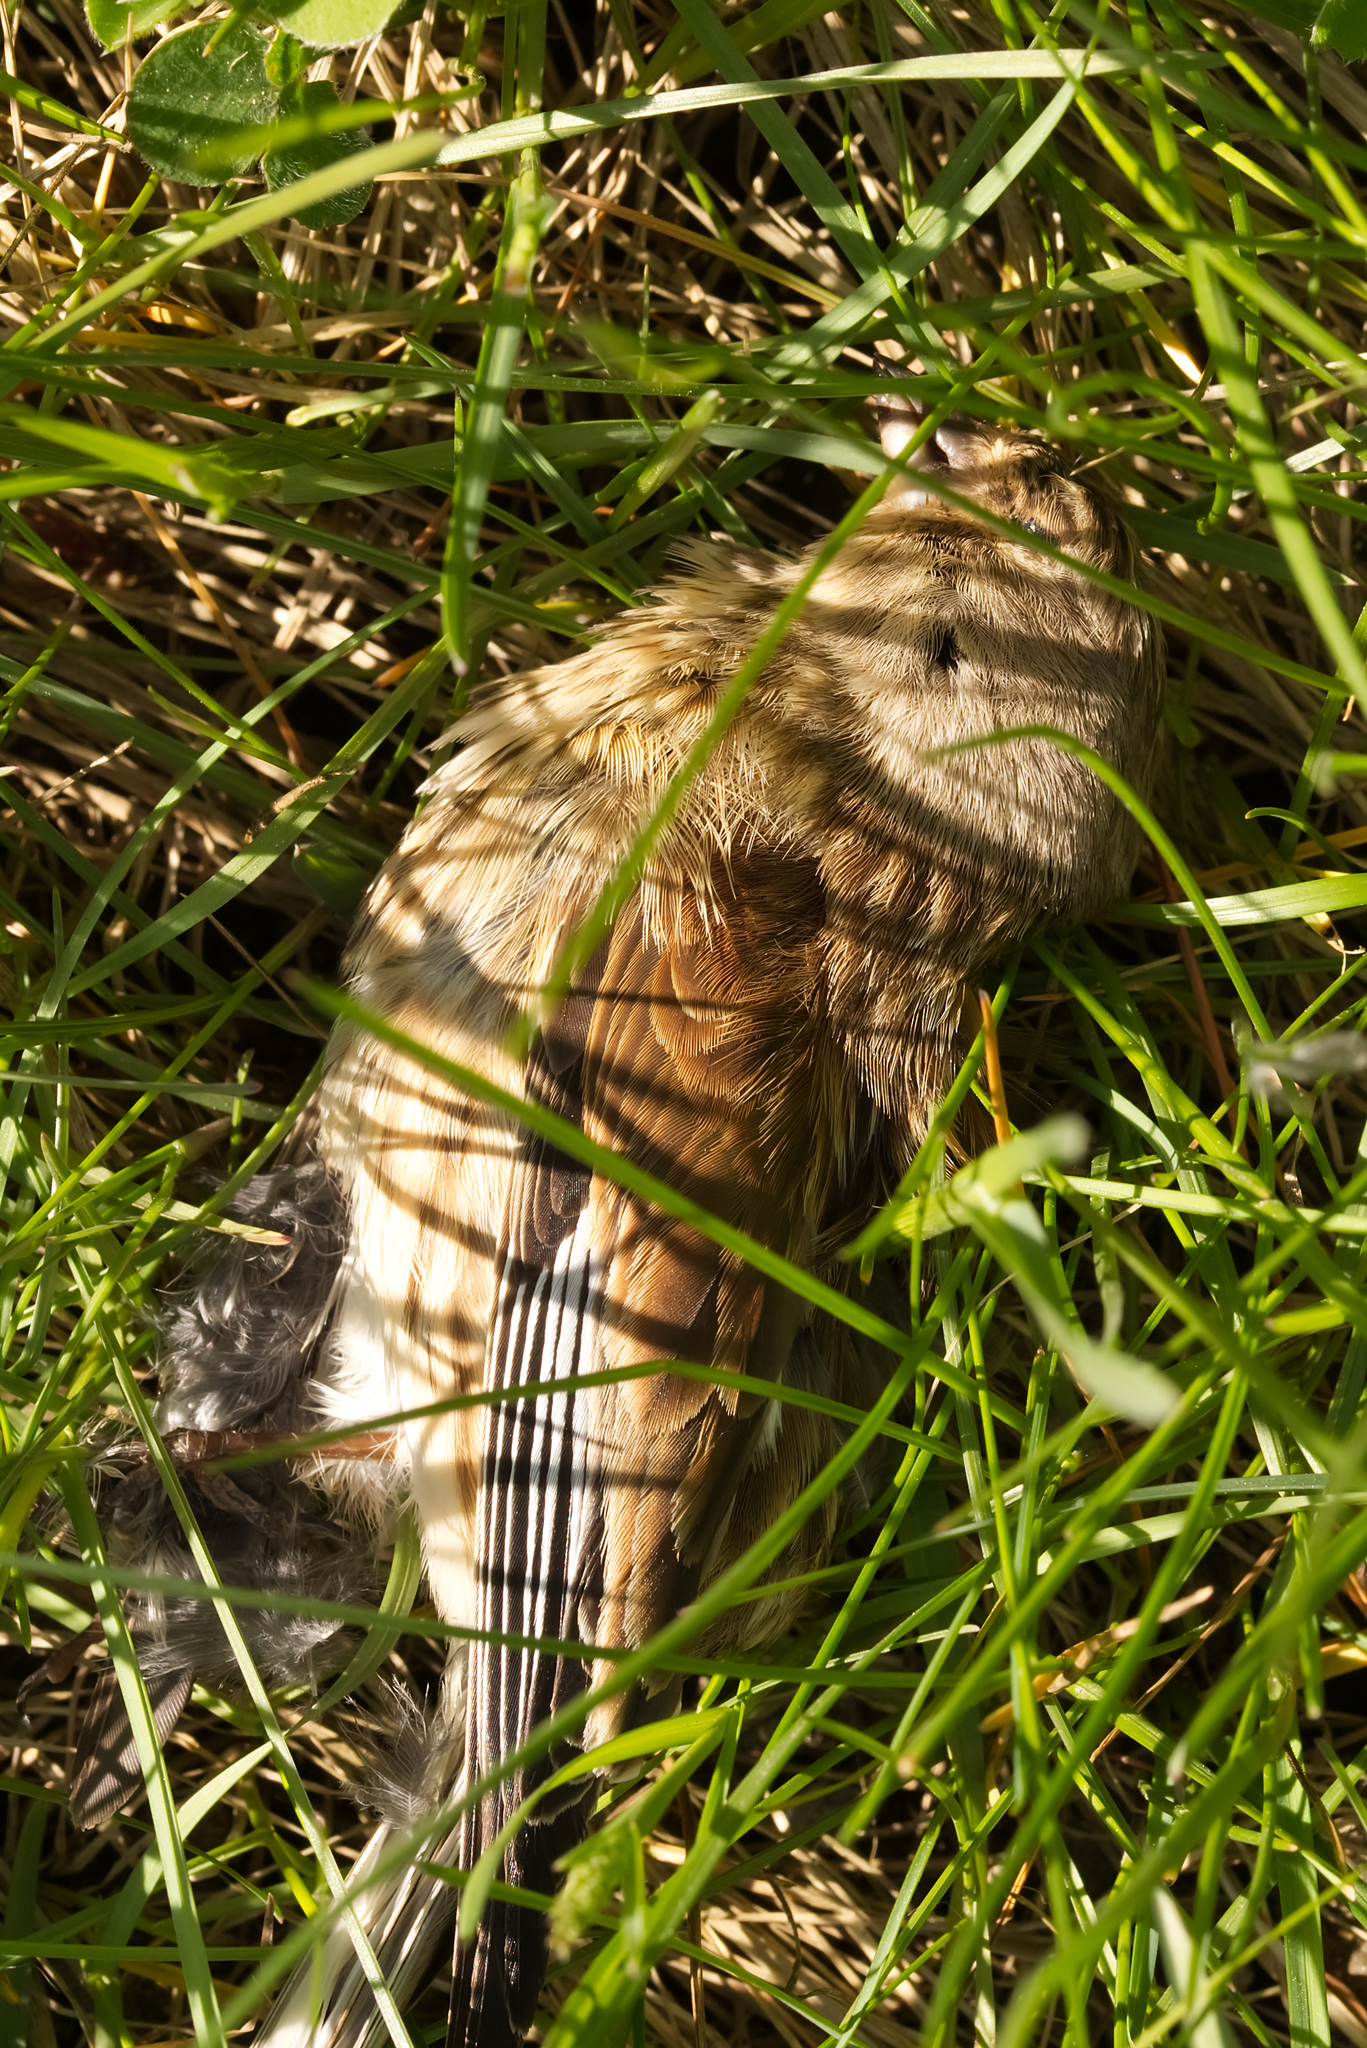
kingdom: Animalia
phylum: Chordata
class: Aves
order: Passeriformes
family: Fringillidae
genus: Linaria
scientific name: Linaria cannabina
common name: Common linnet
